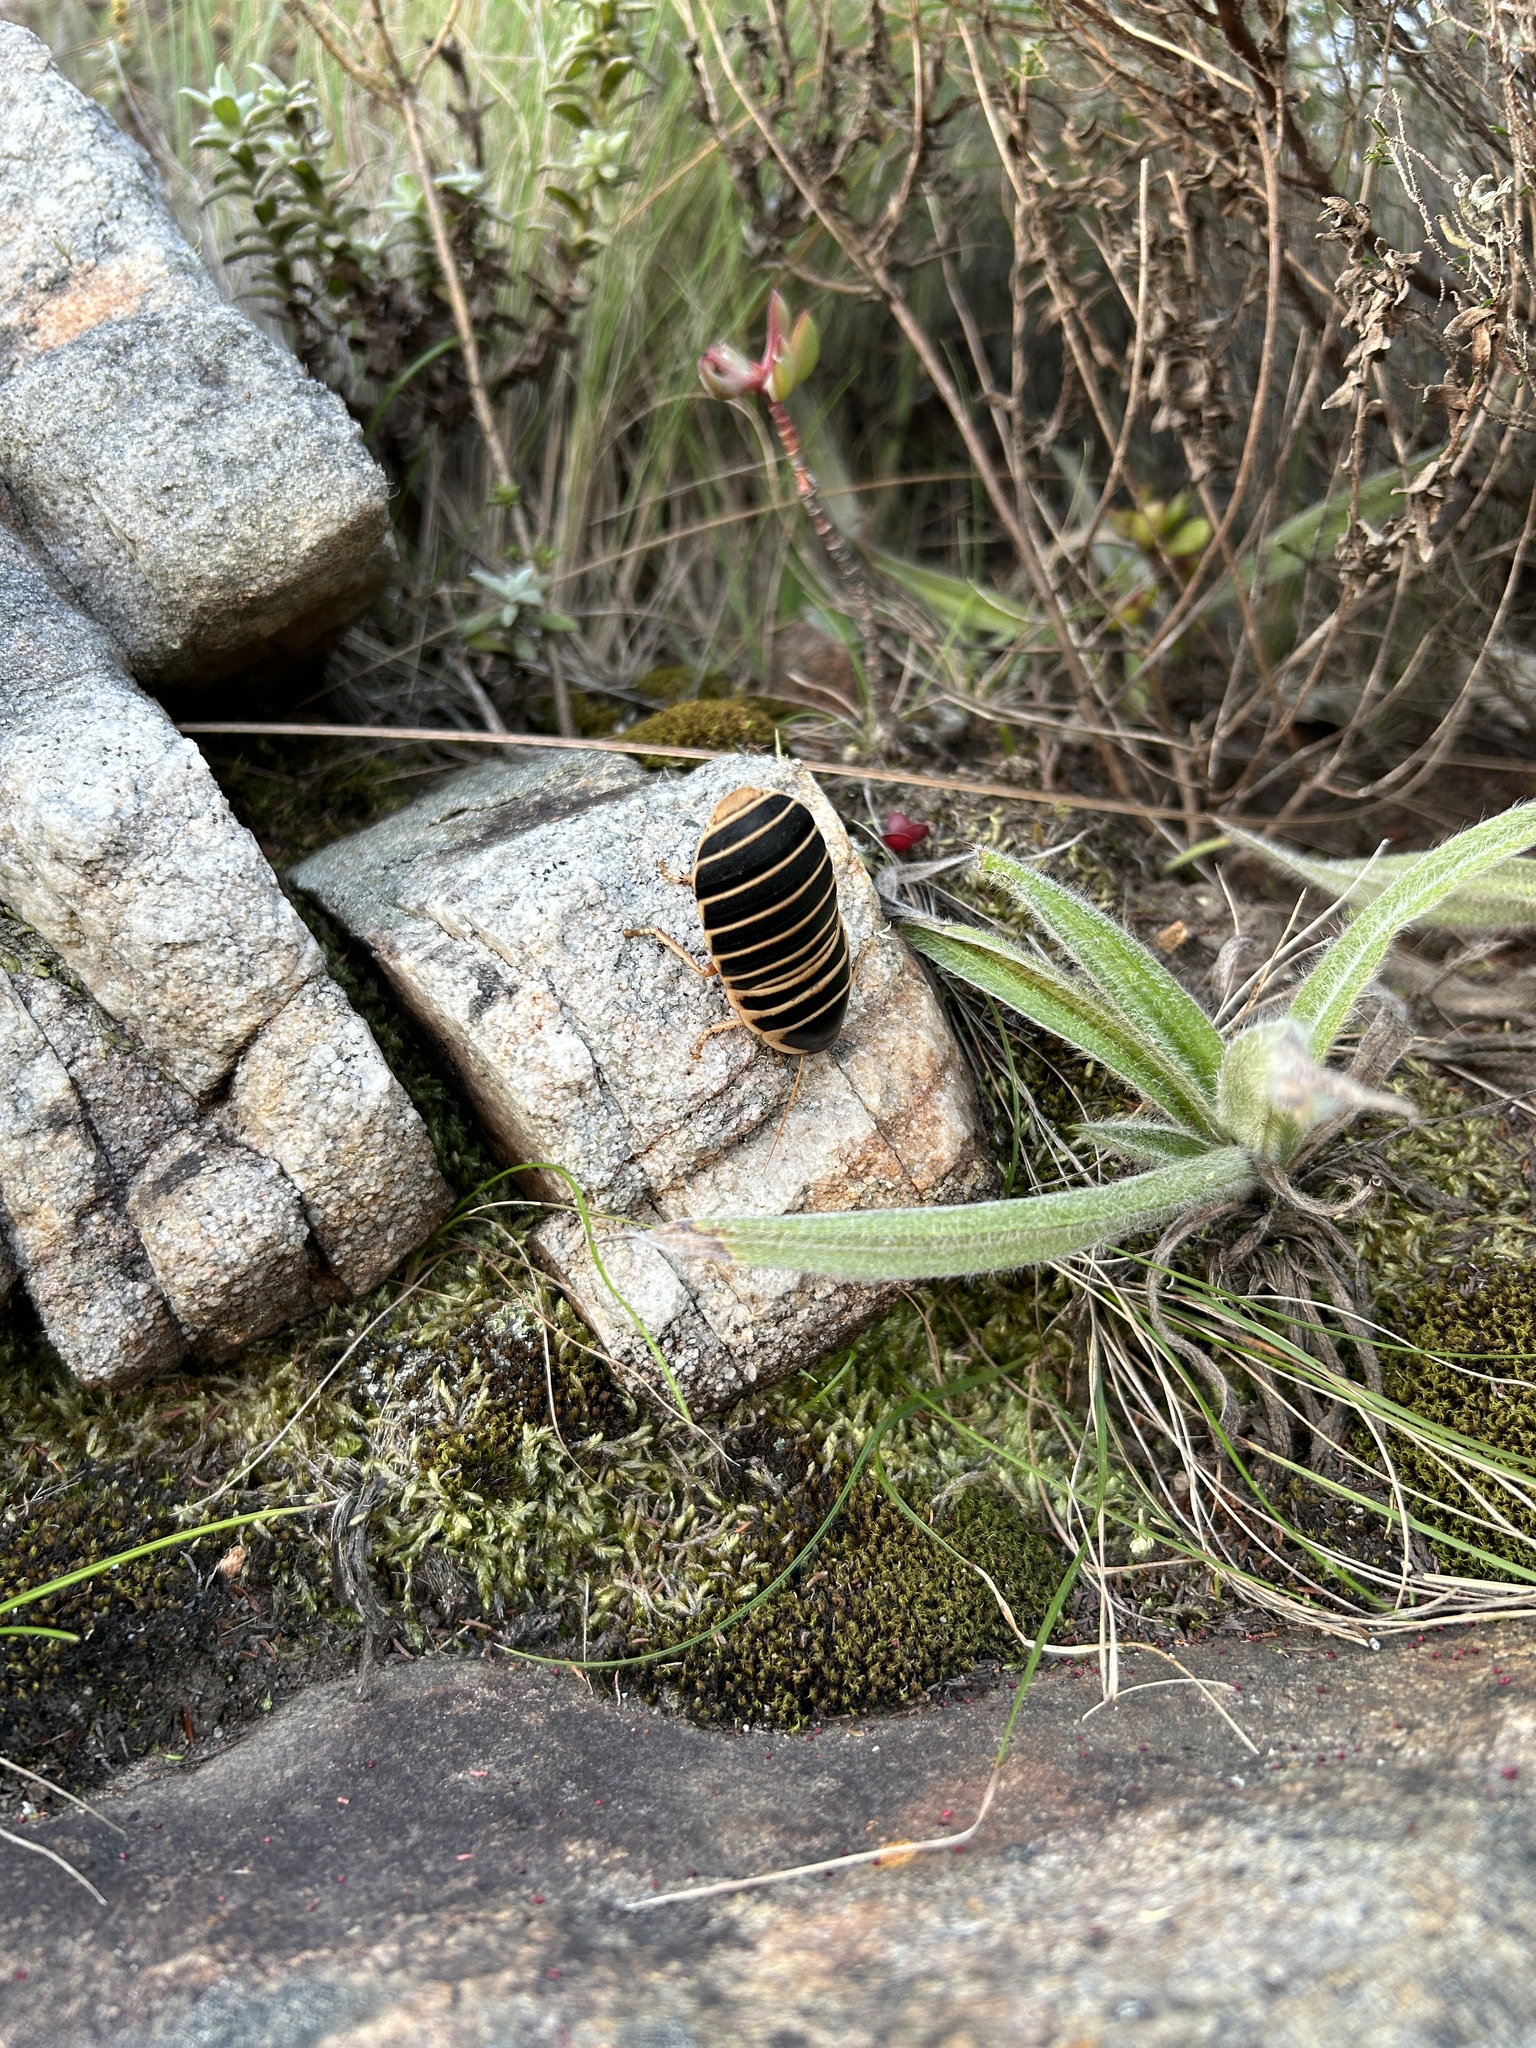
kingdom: Animalia
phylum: Arthropoda
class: Insecta
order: Blattodea
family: Blaberidae
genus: Aptera
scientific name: Aptera fusca
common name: Cape mountain cockroach
